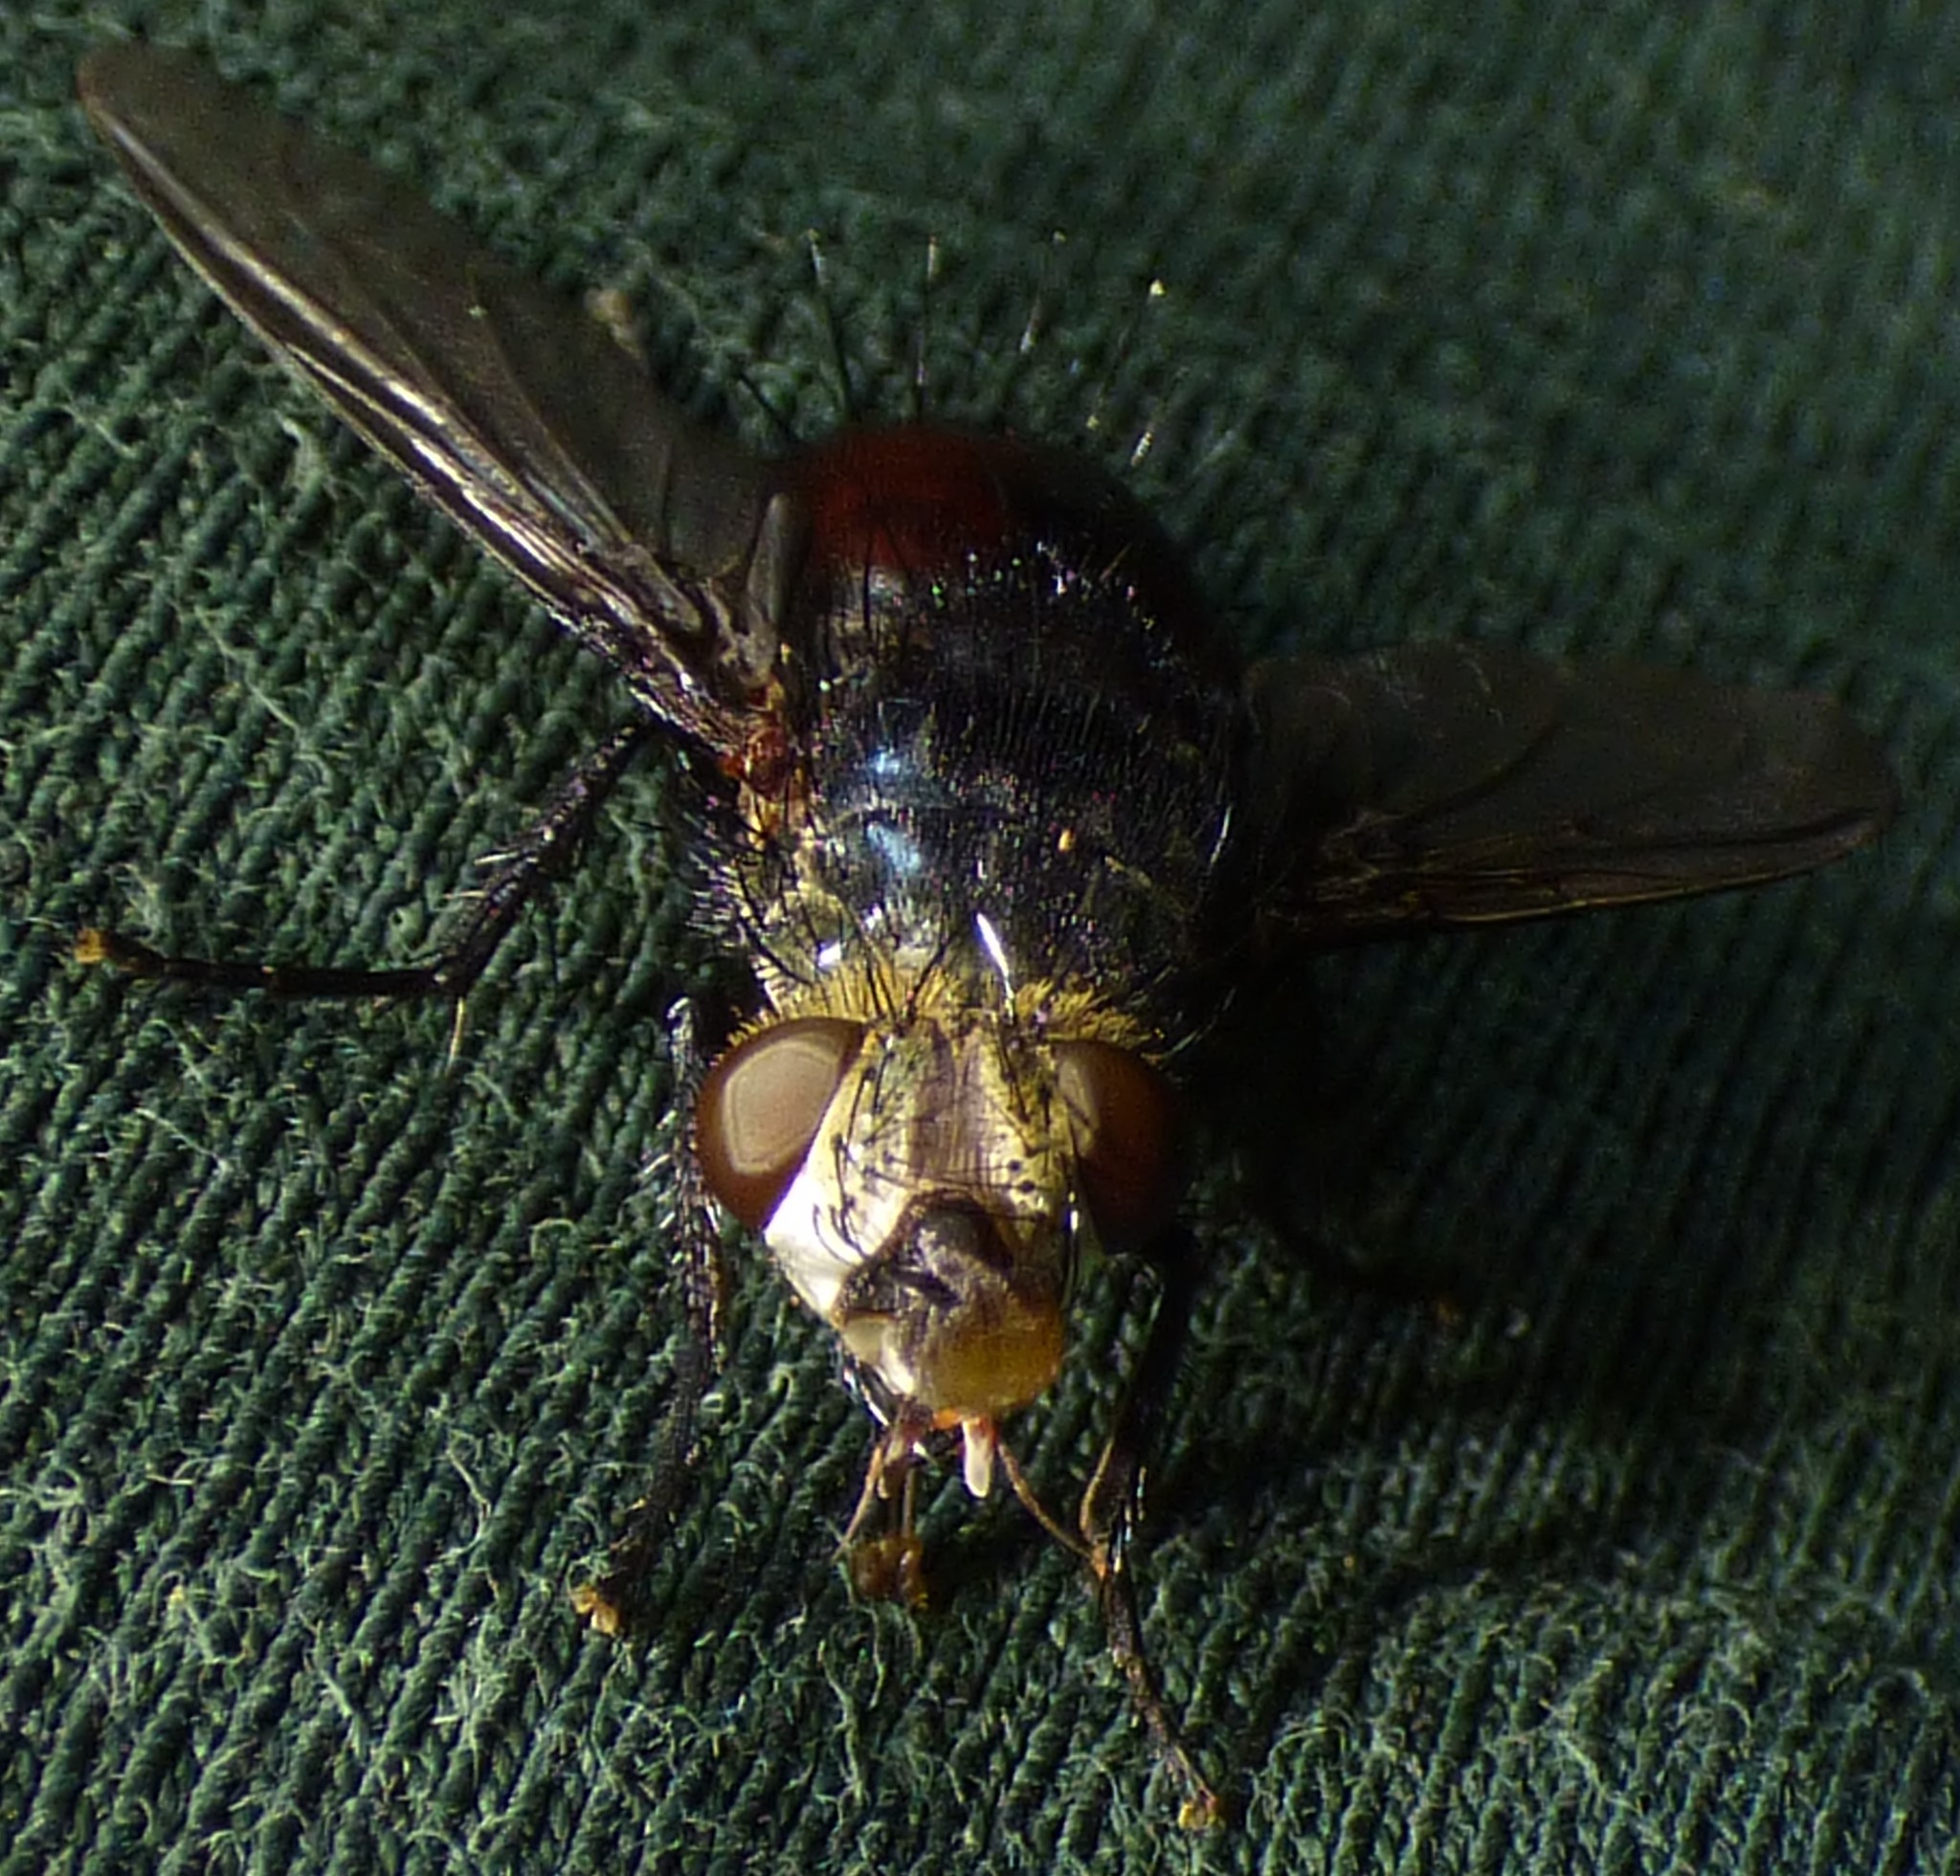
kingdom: Animalia
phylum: Arthropoda
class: Insecta
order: Diptera
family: Tachinidae
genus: Juriniopsis
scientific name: Juriniopsis adusta
